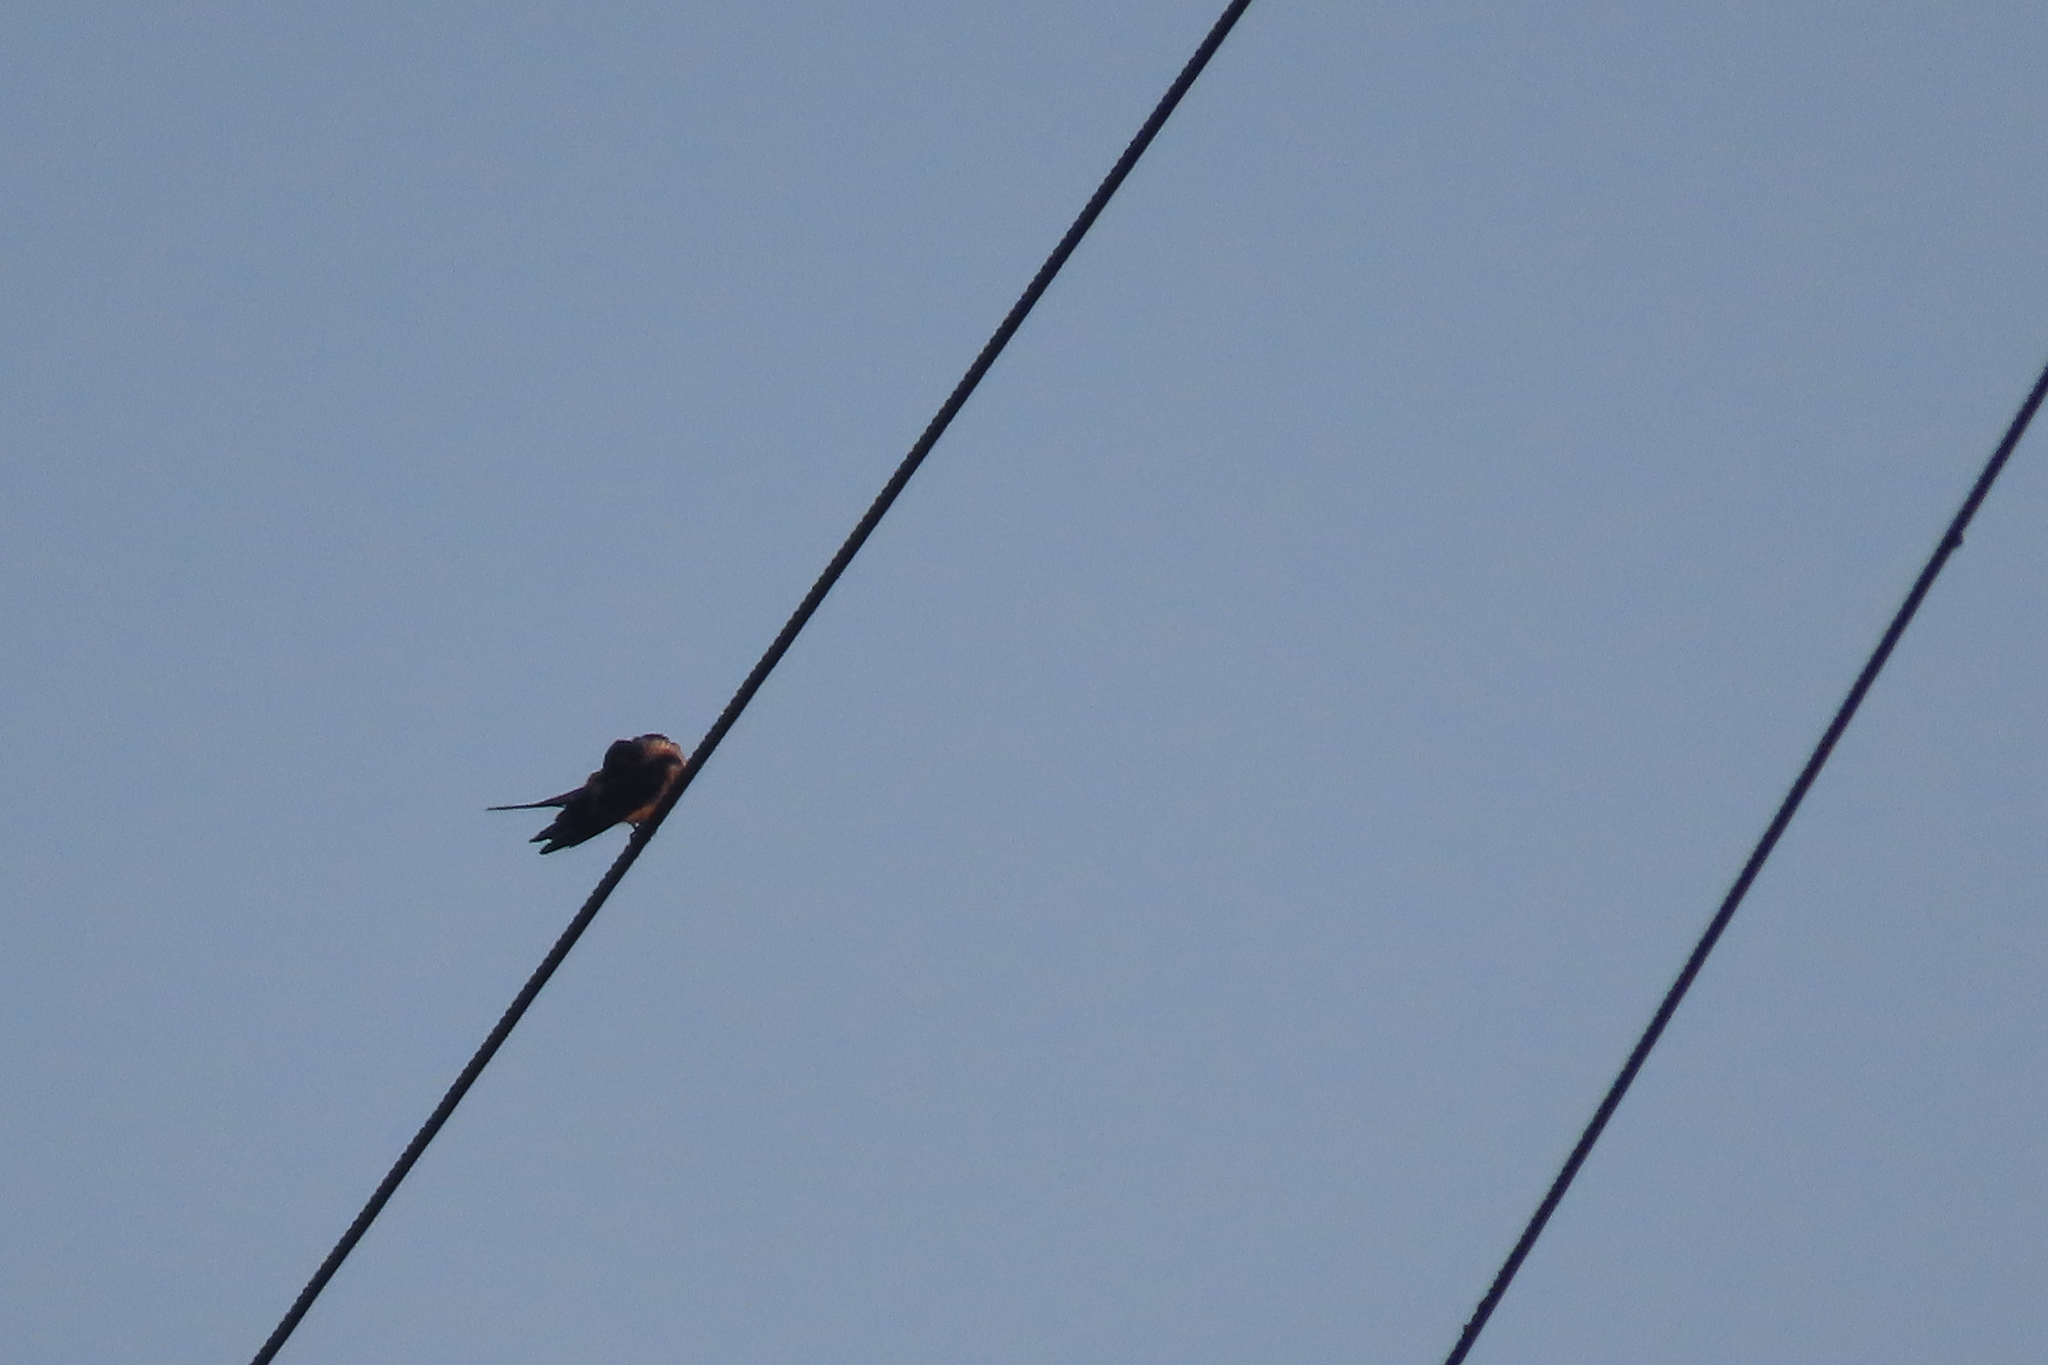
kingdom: Animalia
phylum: Chordata
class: Aves
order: Passeriformes
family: Hirundinidae
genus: Cecropis
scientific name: Cecropis daurica
